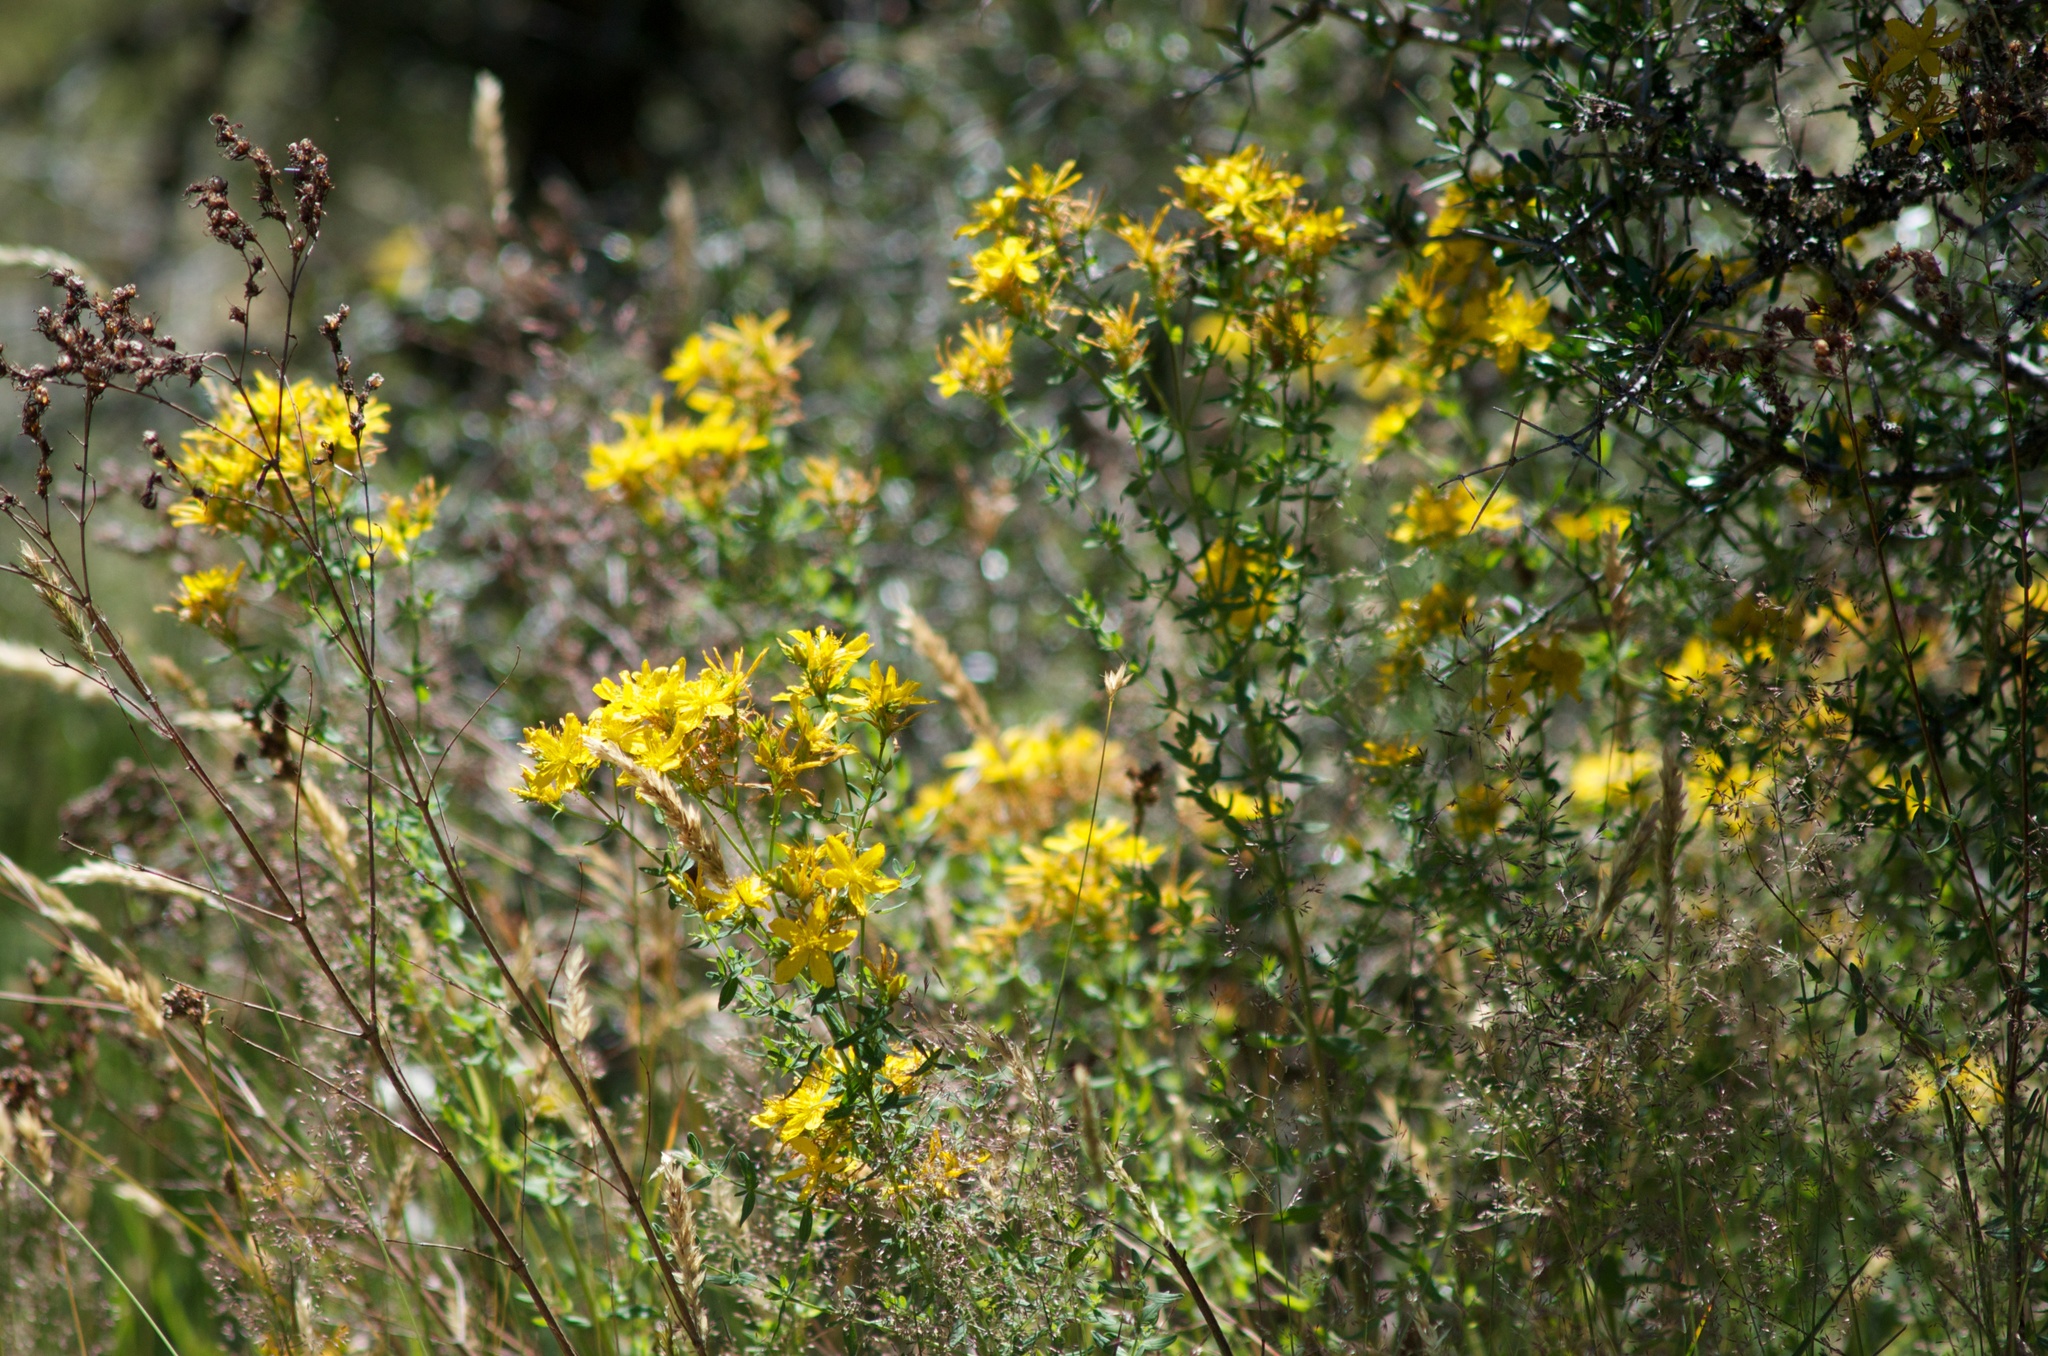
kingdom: Plantae
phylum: Tracheophyta
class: Magnoliopsida
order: Malpighiales
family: Hypericaceae
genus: Hypericum
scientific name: Hypericum perforatum
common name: Common st. johnswort
